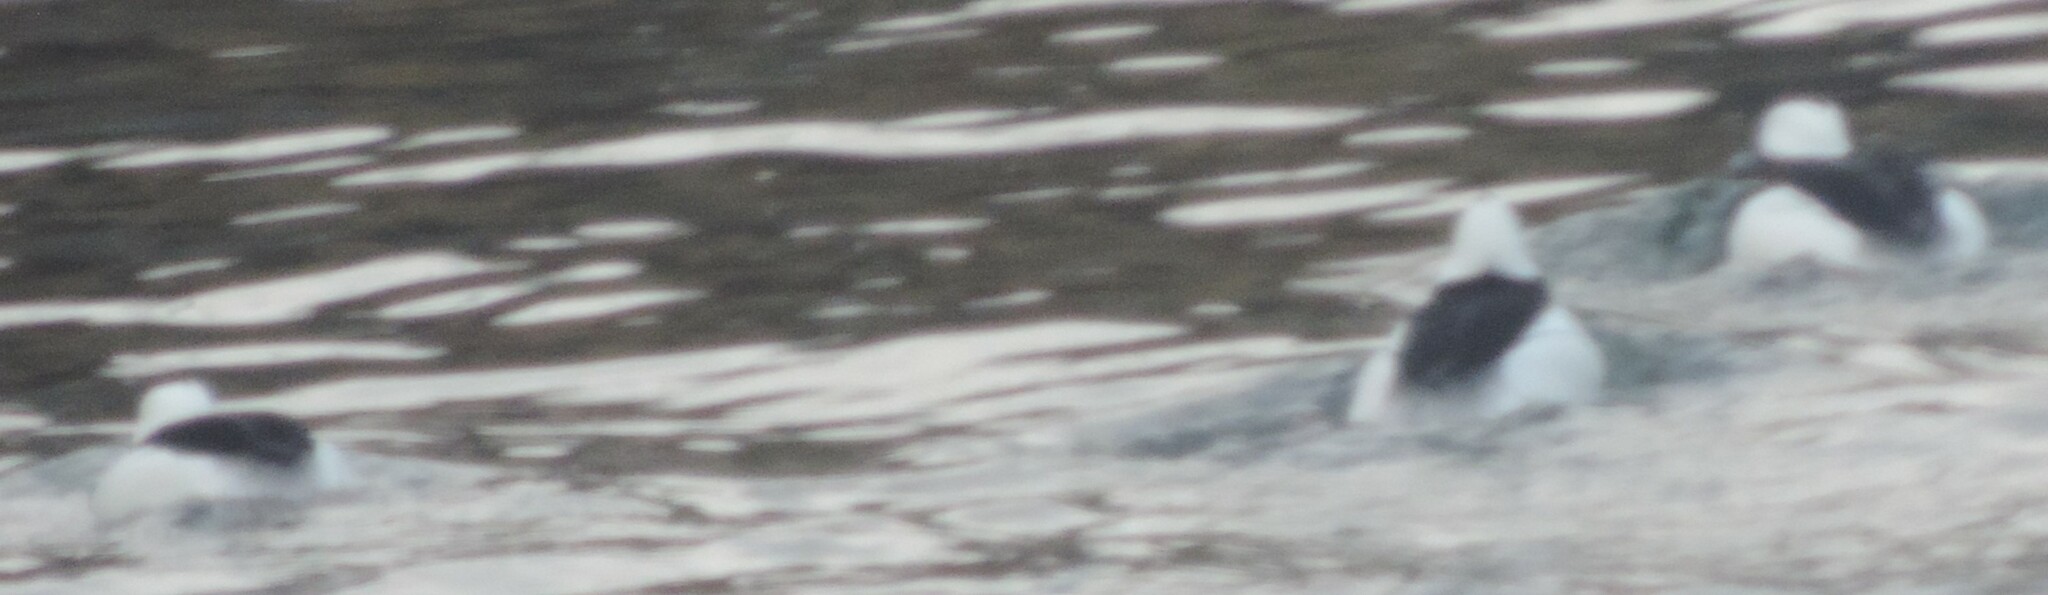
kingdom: Animalia
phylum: Chordata
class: Aves
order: Anseriformes
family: Anatidae
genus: Bucephala
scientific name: Bucephala albeola
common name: Bufflehead
